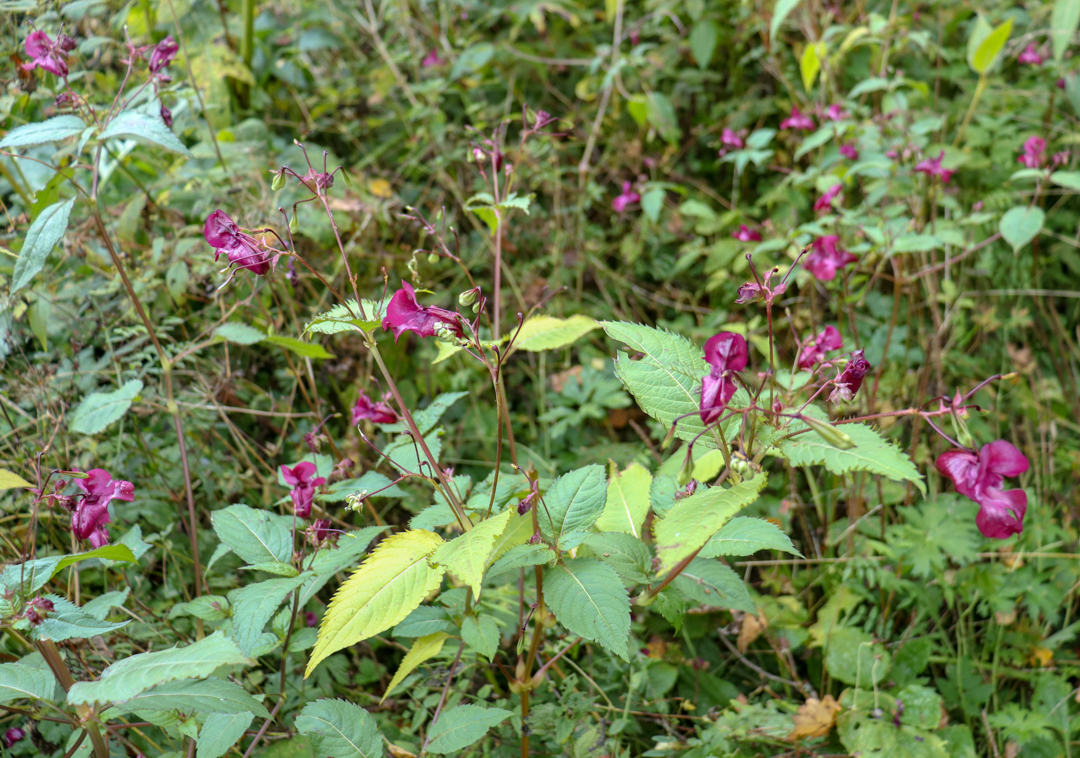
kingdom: Plantae
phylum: Tracheophyta
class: Magnoliopsida
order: Ericales
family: Balsaminaceae
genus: Impatiens
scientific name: Impatiens glandulifera
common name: Himalayan balsam
